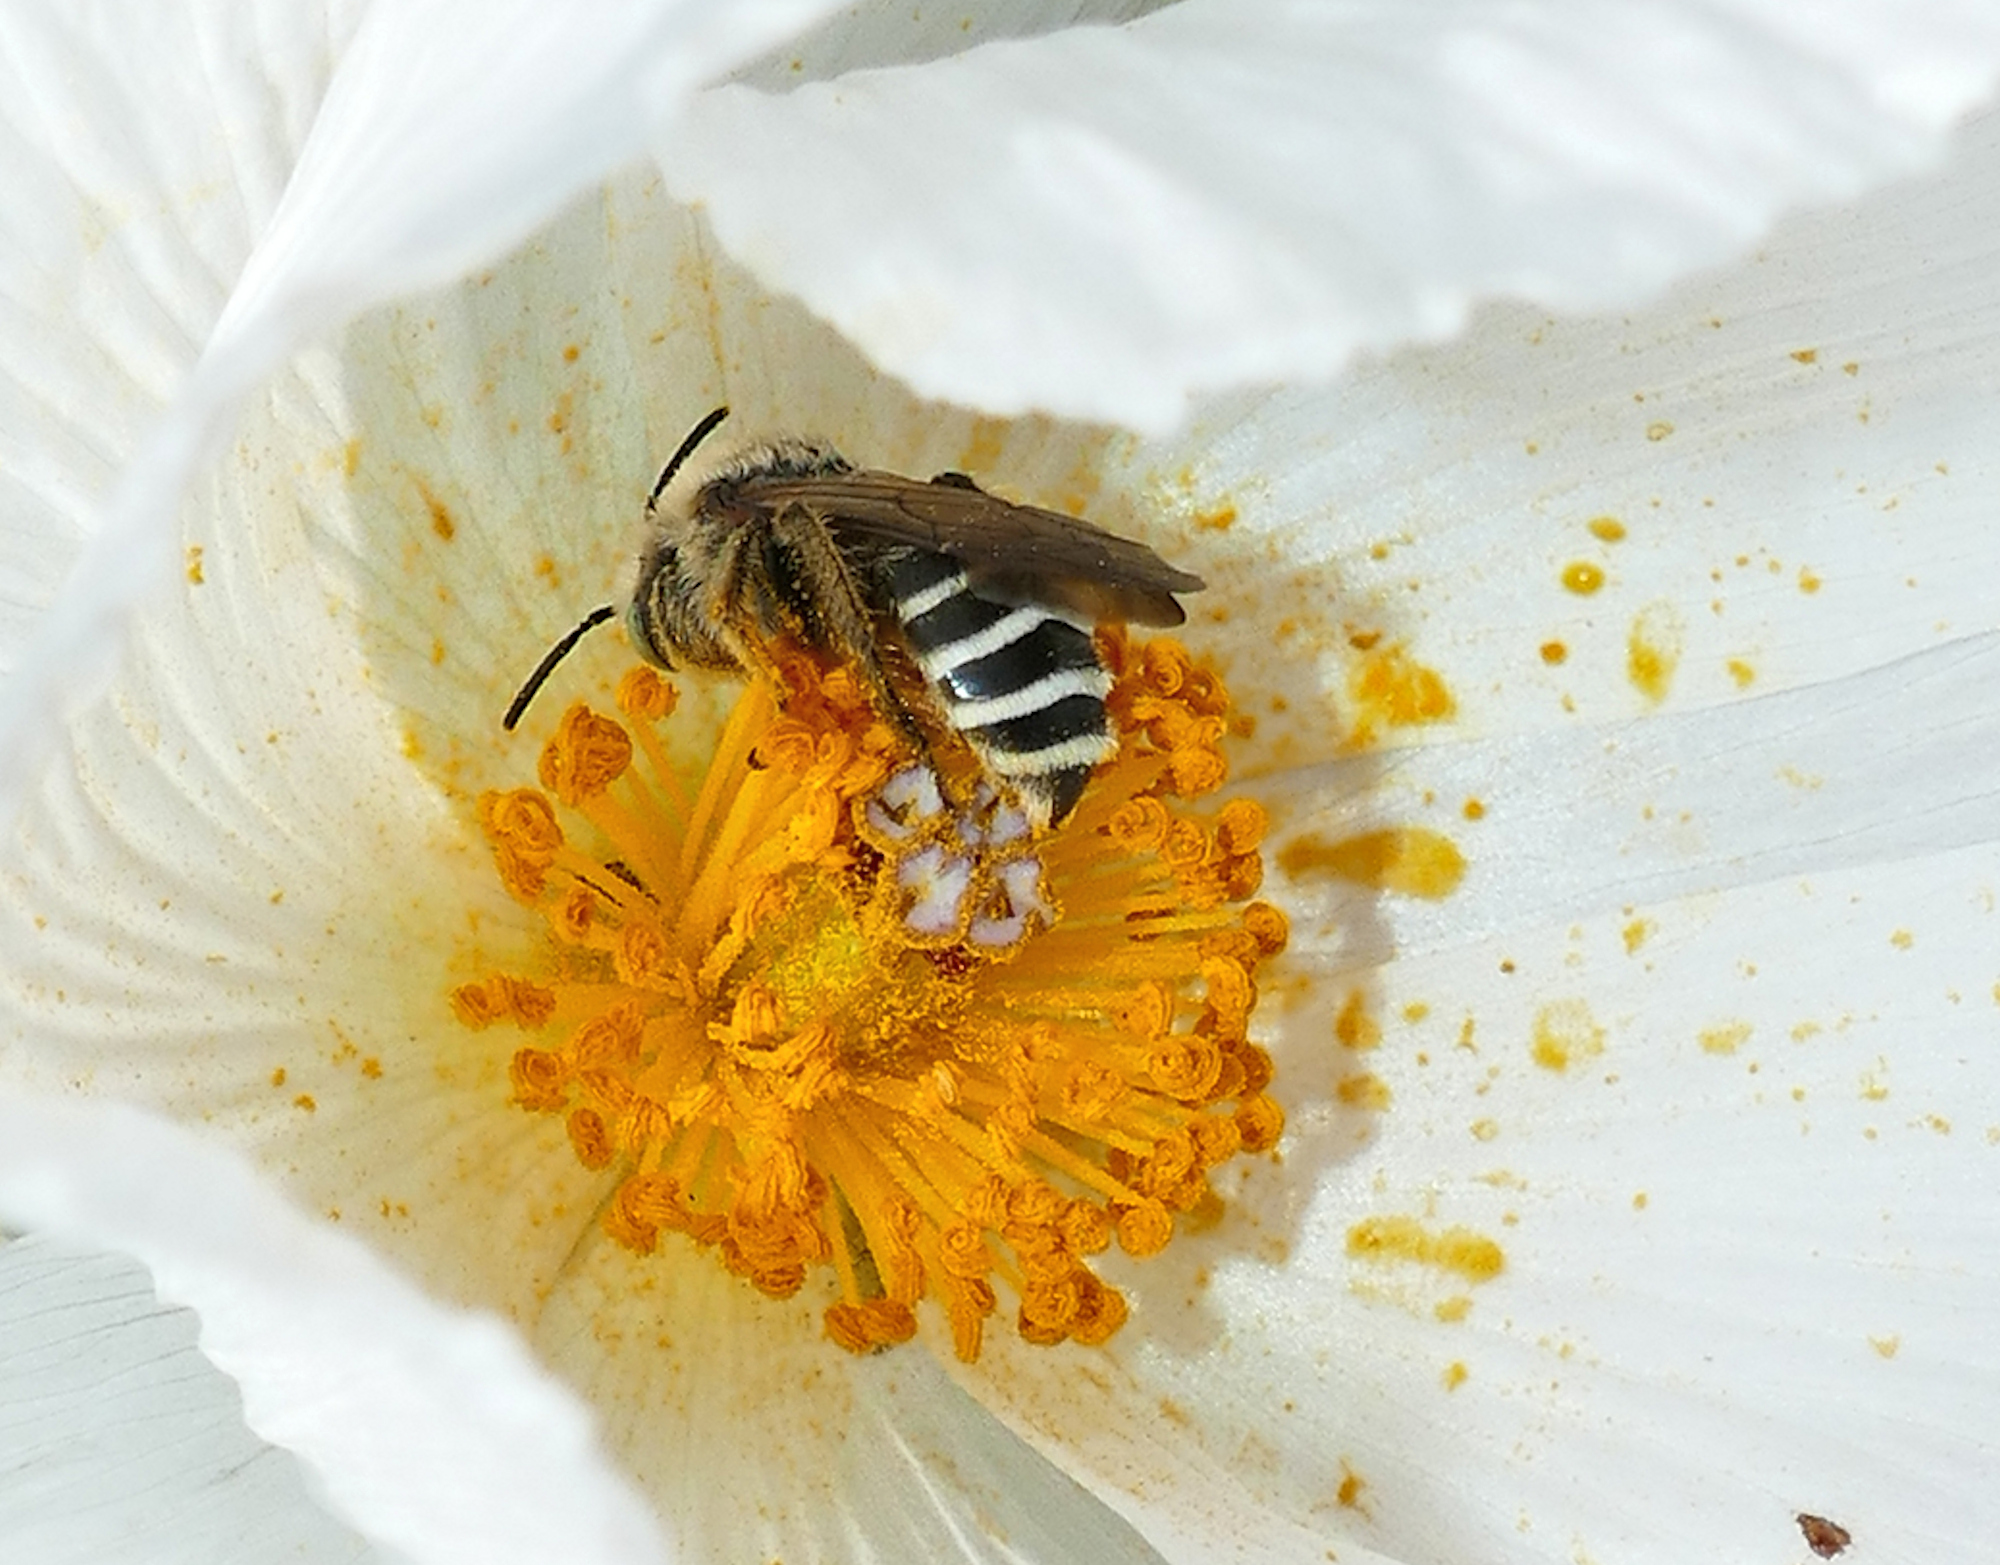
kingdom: Animalia
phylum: Arthropoda
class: Insecta
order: Hymenoptera
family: Melittidae
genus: Hesperapis
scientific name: Hesperapis
